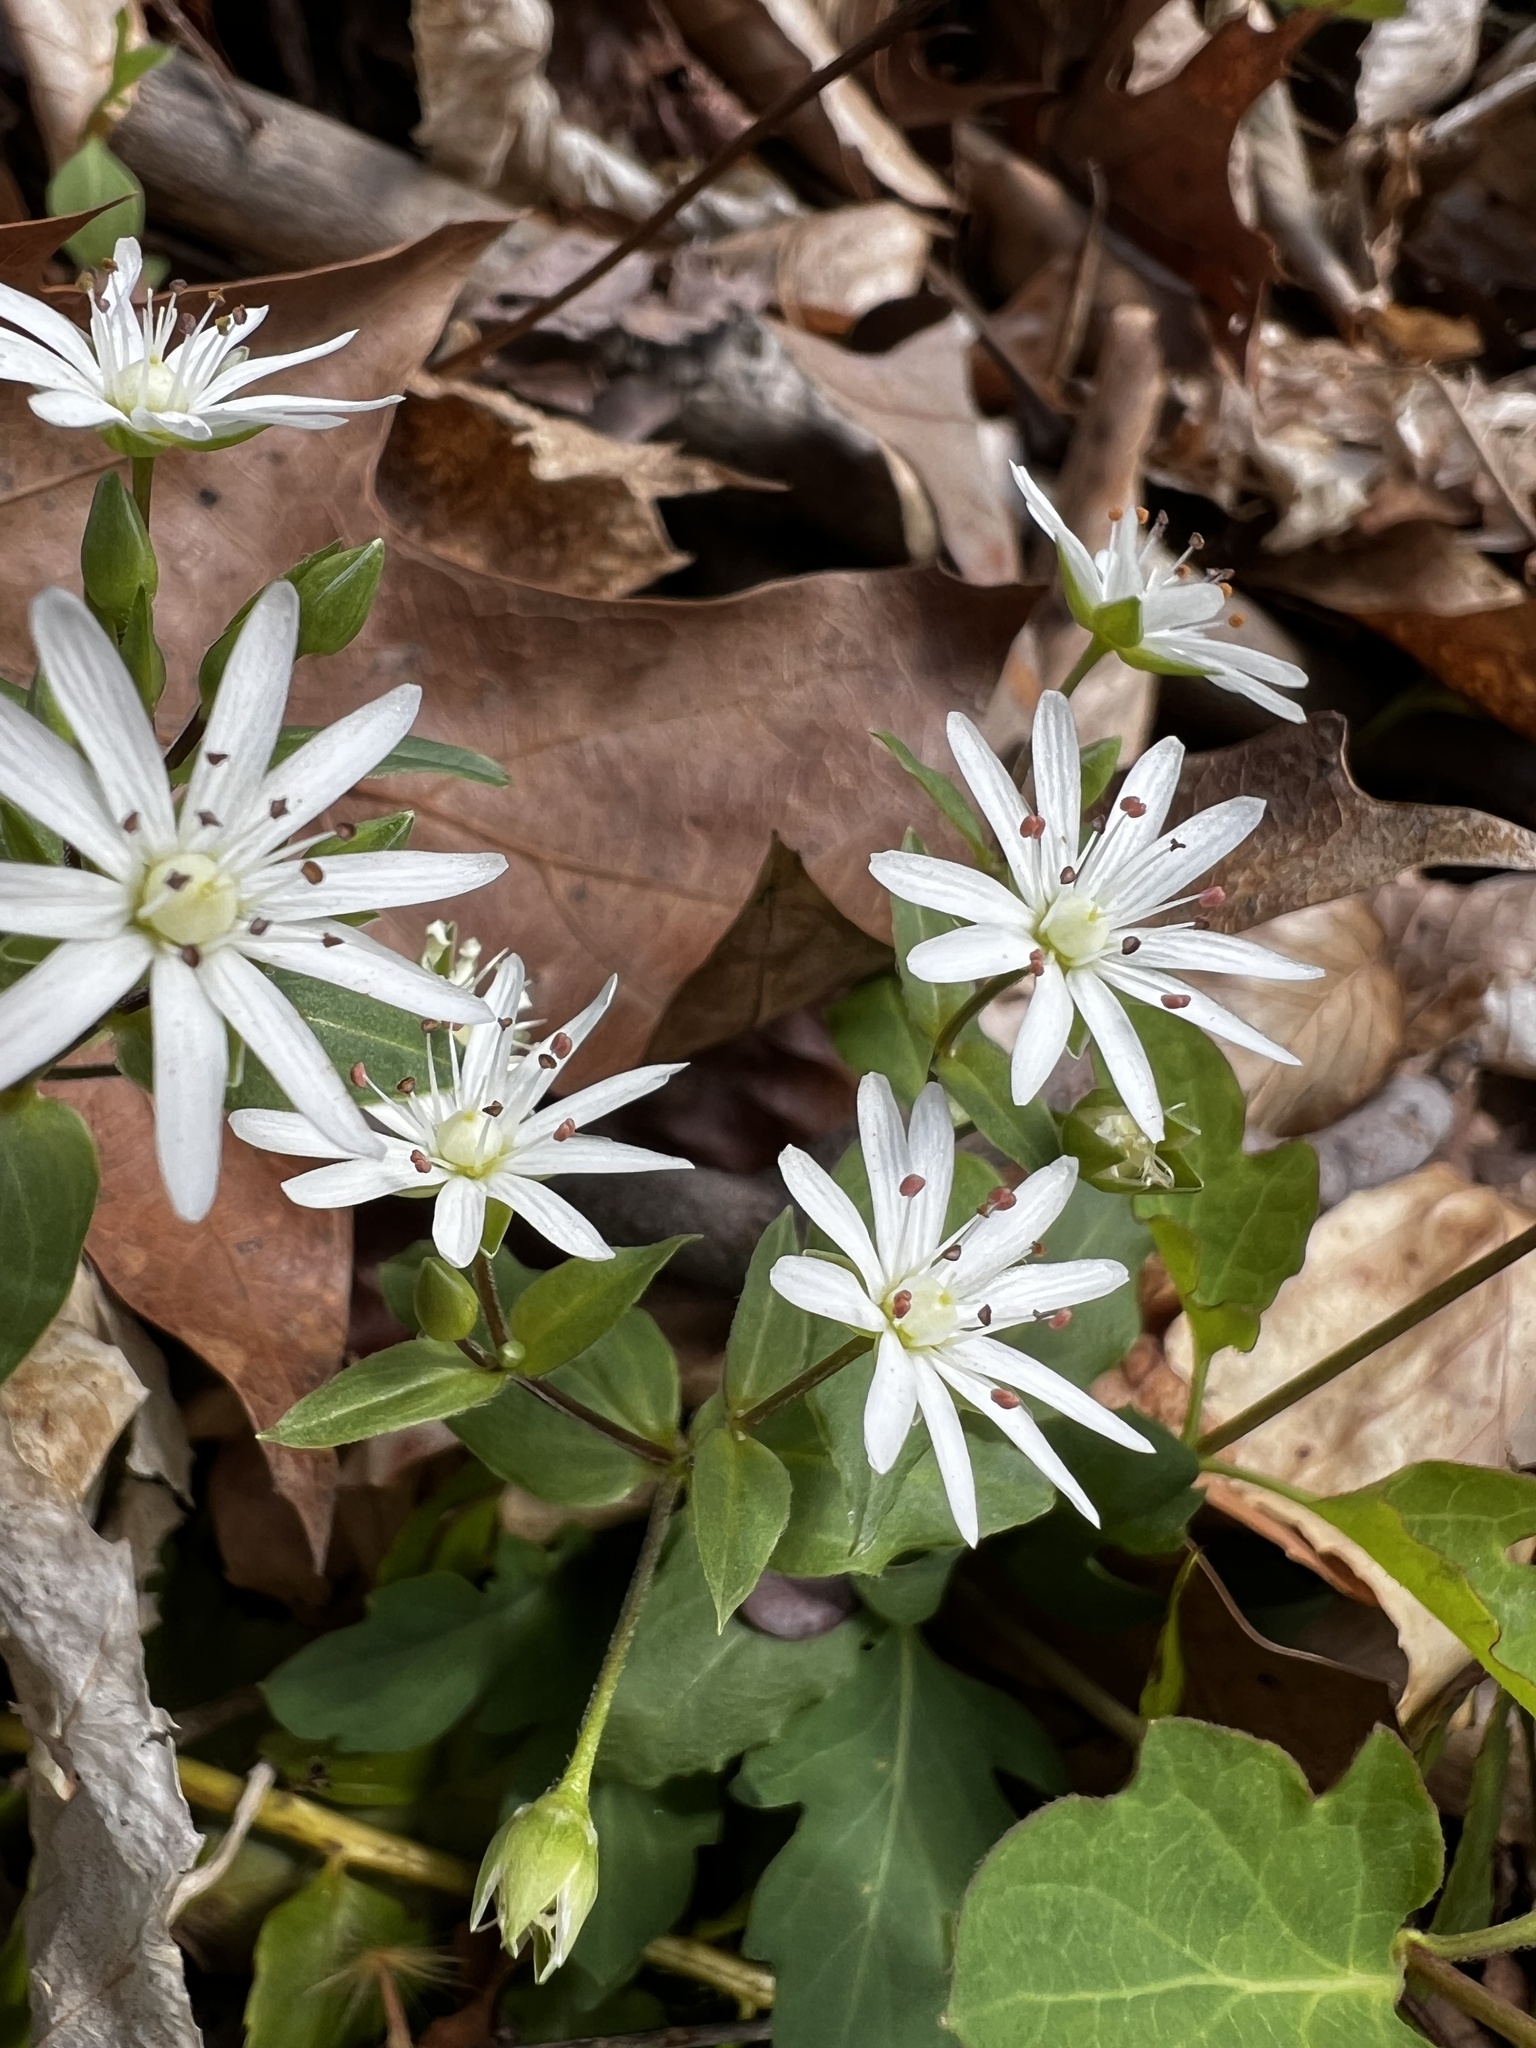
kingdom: Plantae
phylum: Tracheophyta
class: Magnoliopsida
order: Caryophyllales
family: Caryophyllaceae
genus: Stellaria
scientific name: Stellaria pubera
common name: Star chickweed
